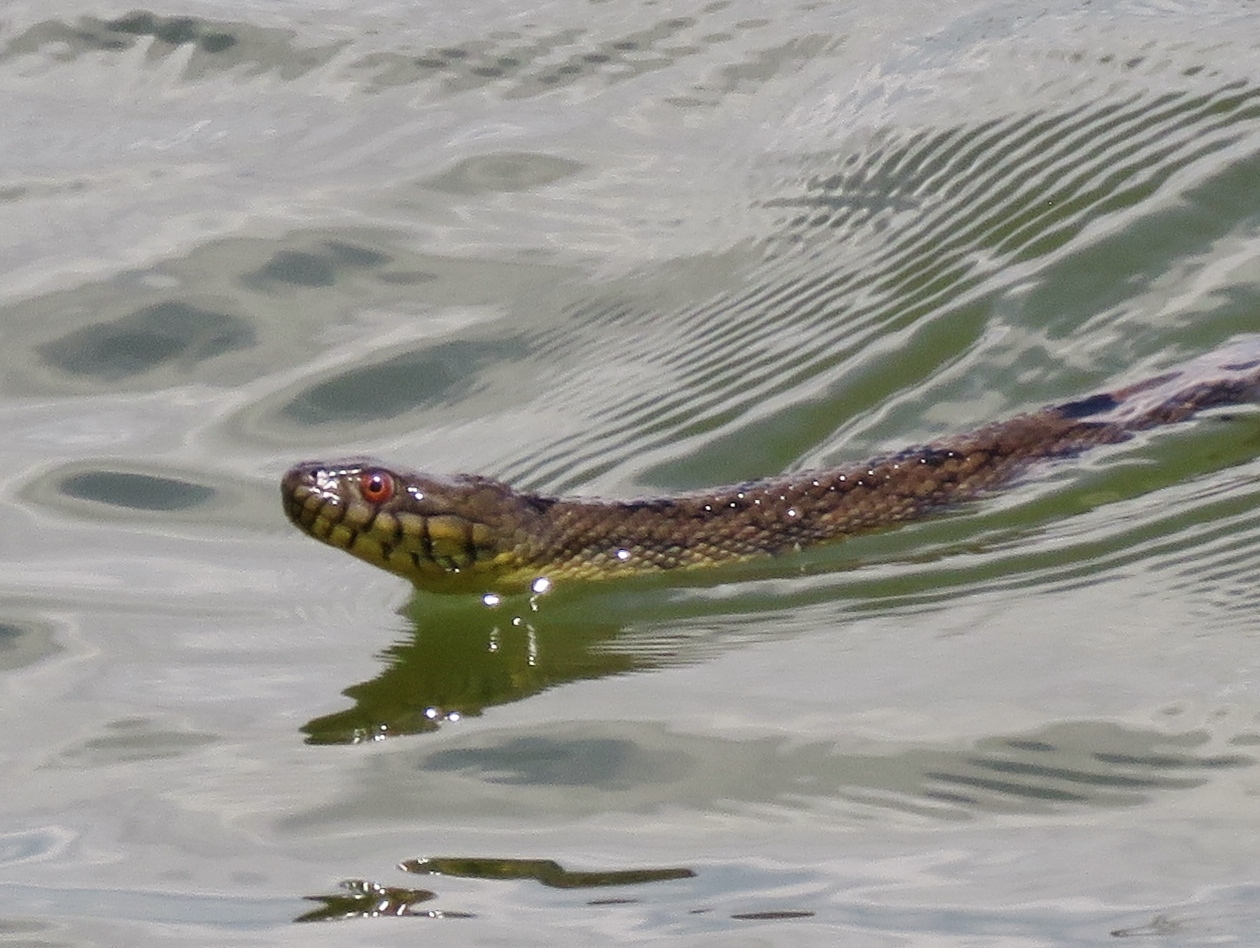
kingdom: Animalia
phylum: Chordata
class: Squamata
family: Colubridae
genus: Nerodia
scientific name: Nerodia rhombifer
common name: Diamondback water snake
